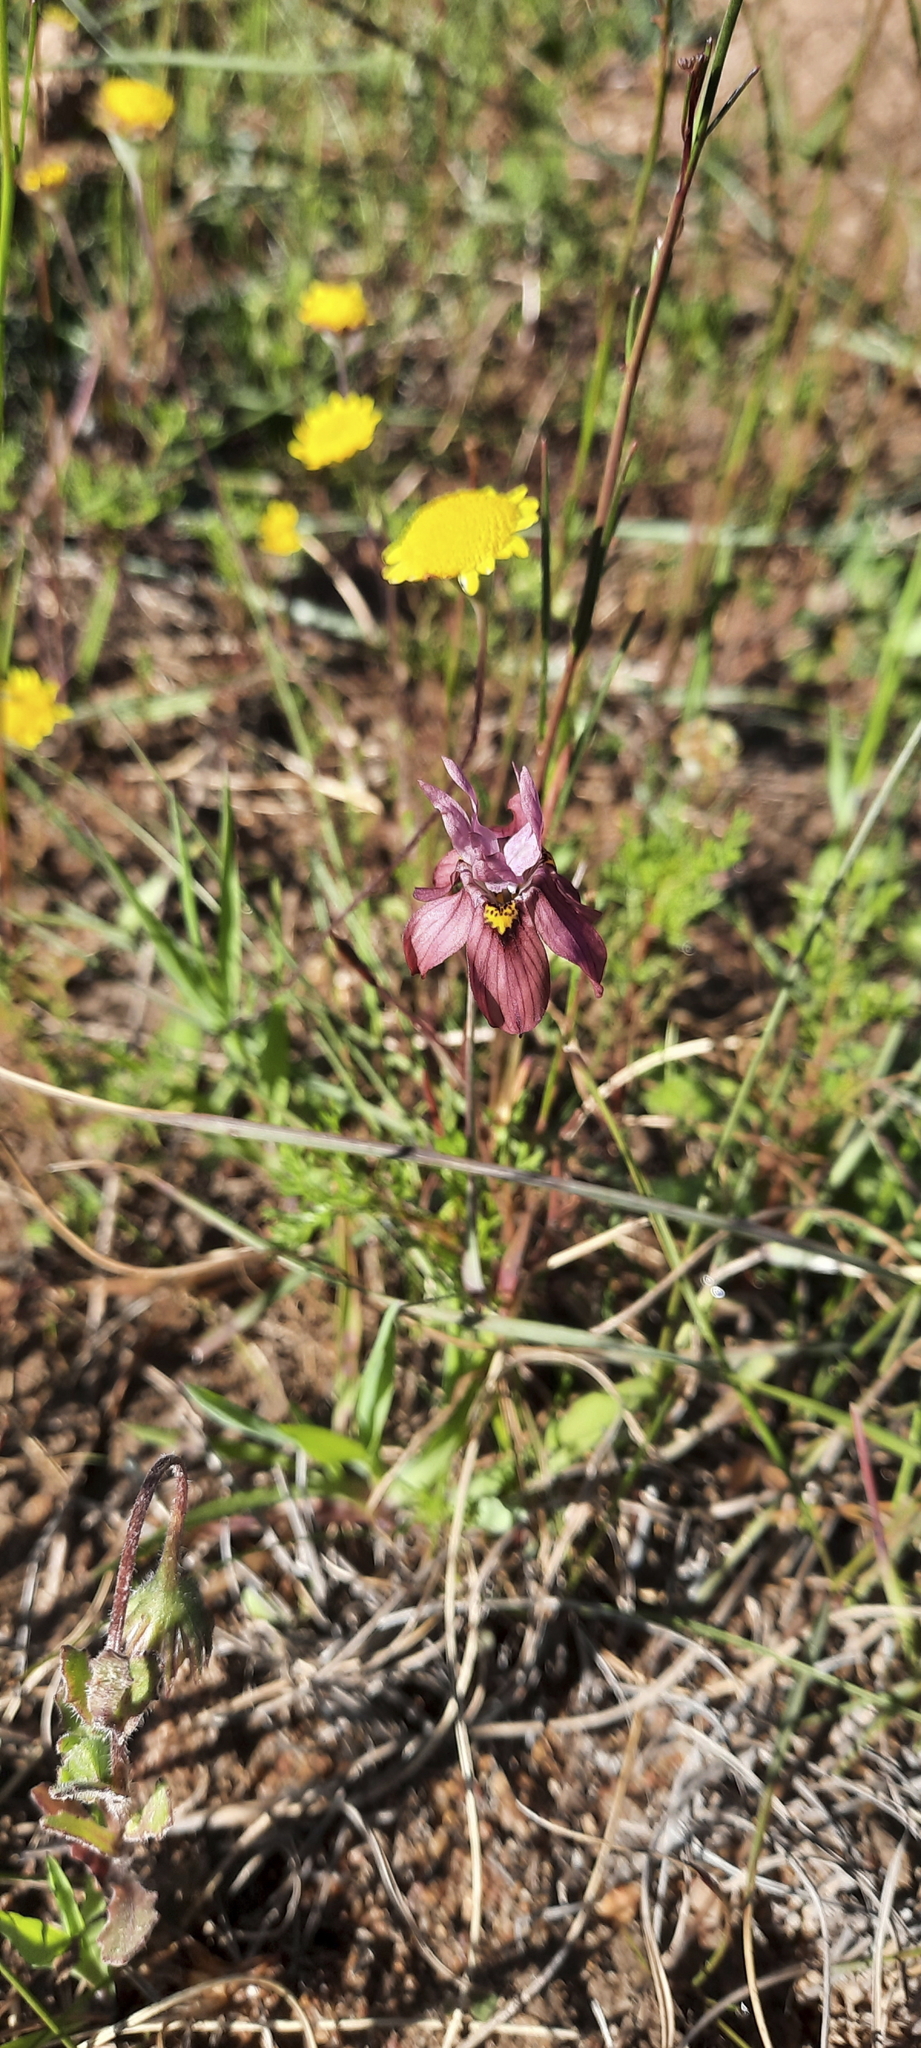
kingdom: Plantae
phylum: Tracheophyta
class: Liliopsida
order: Asparagales
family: Iridaceae
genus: Moraea
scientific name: Moraea gawleri
